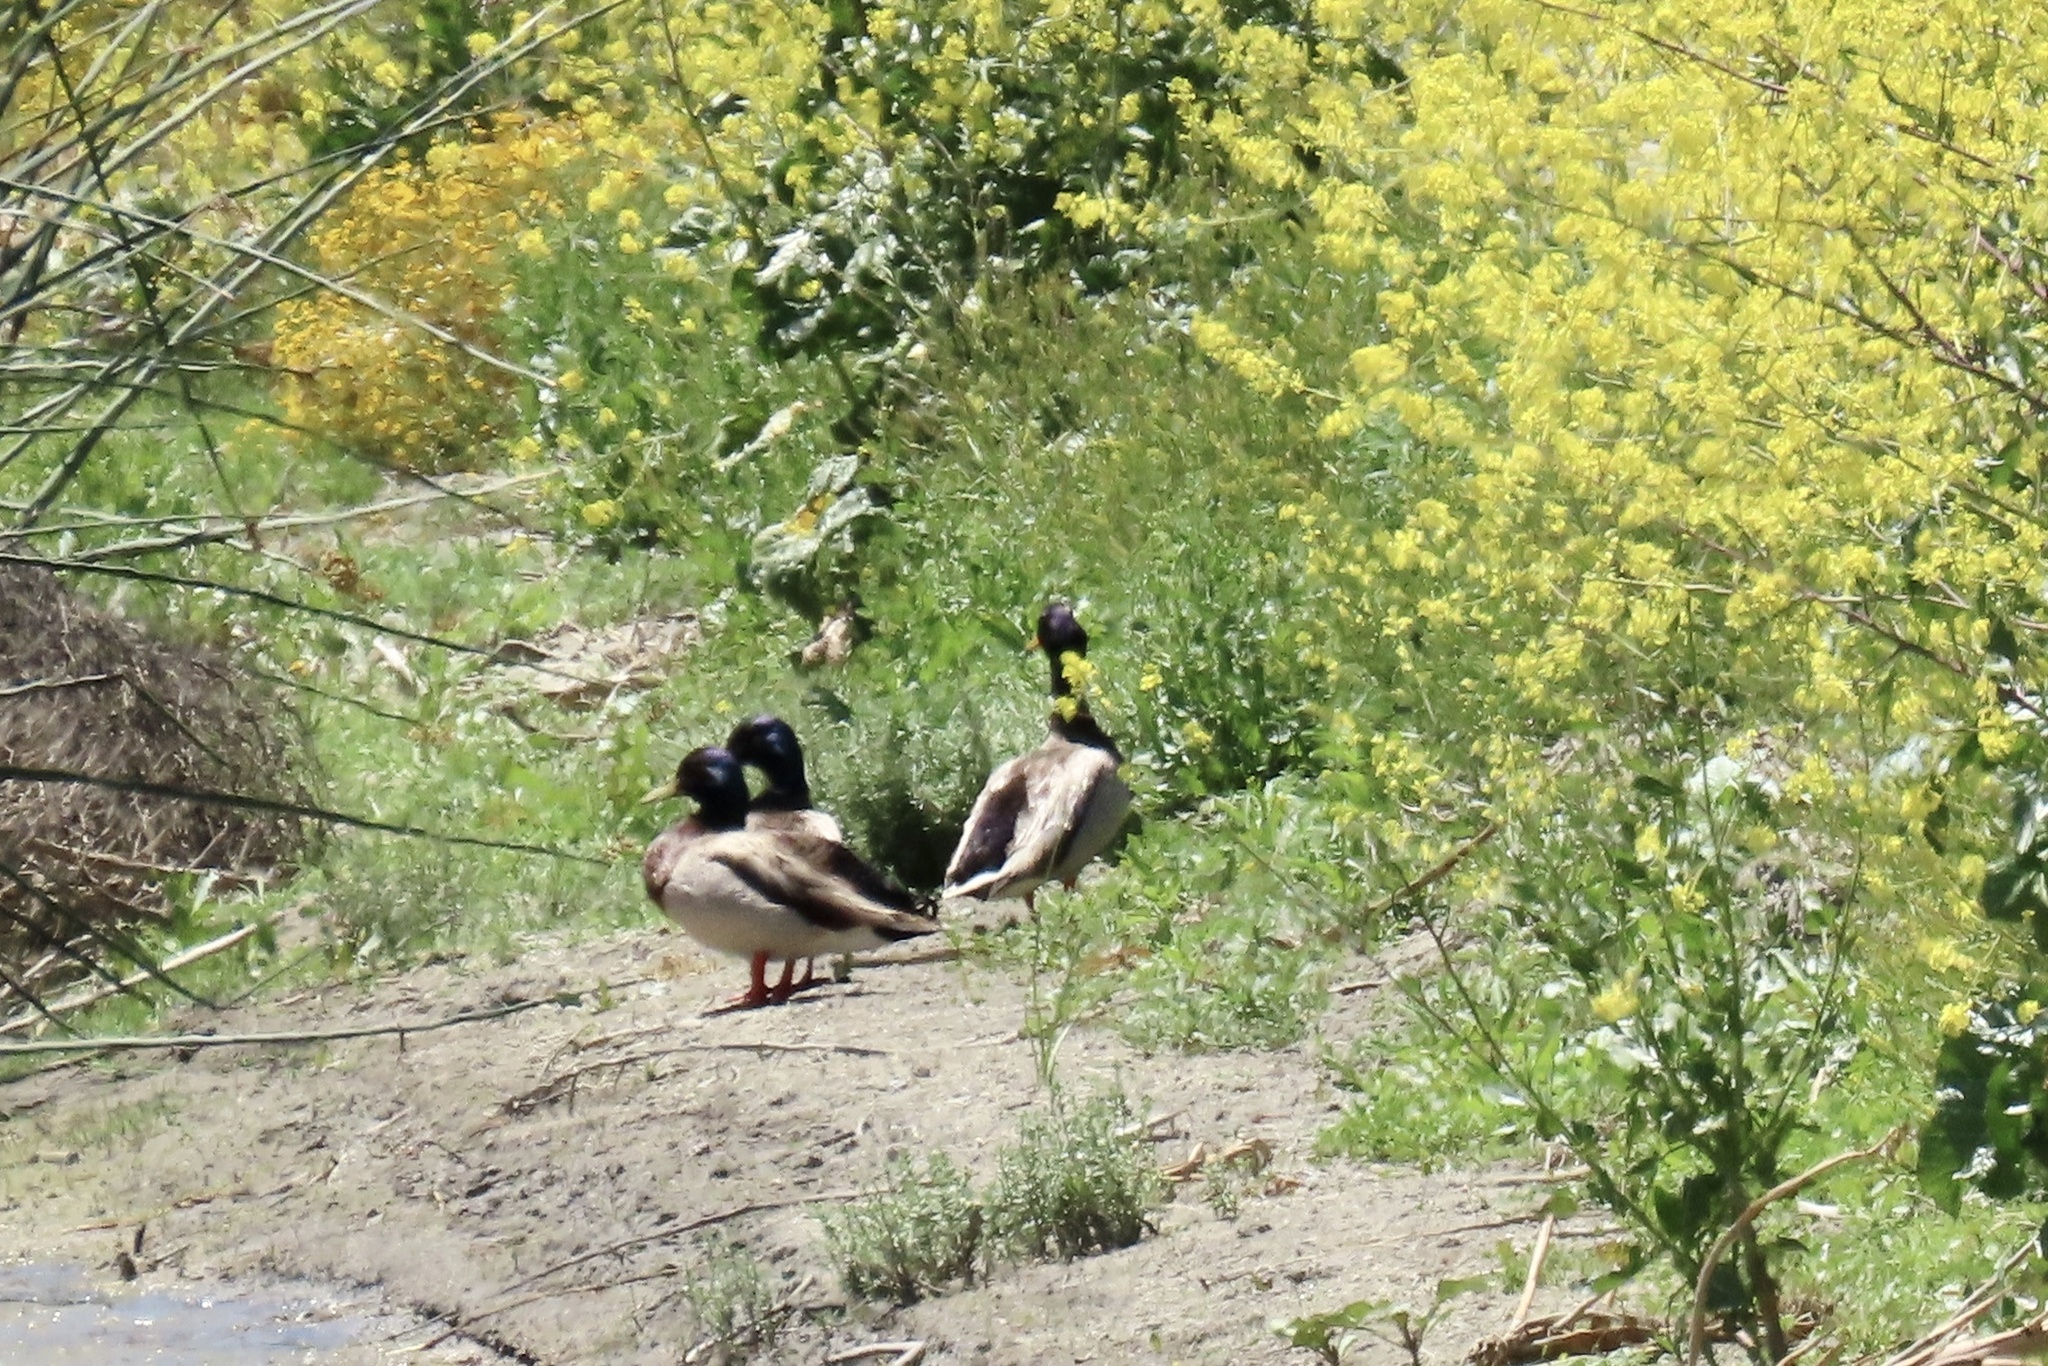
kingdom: Animalia
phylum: Chordata
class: Aves
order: Anseriformes
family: Anatidae
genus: Anas
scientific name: Anas platyrhynchos
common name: Mallard
